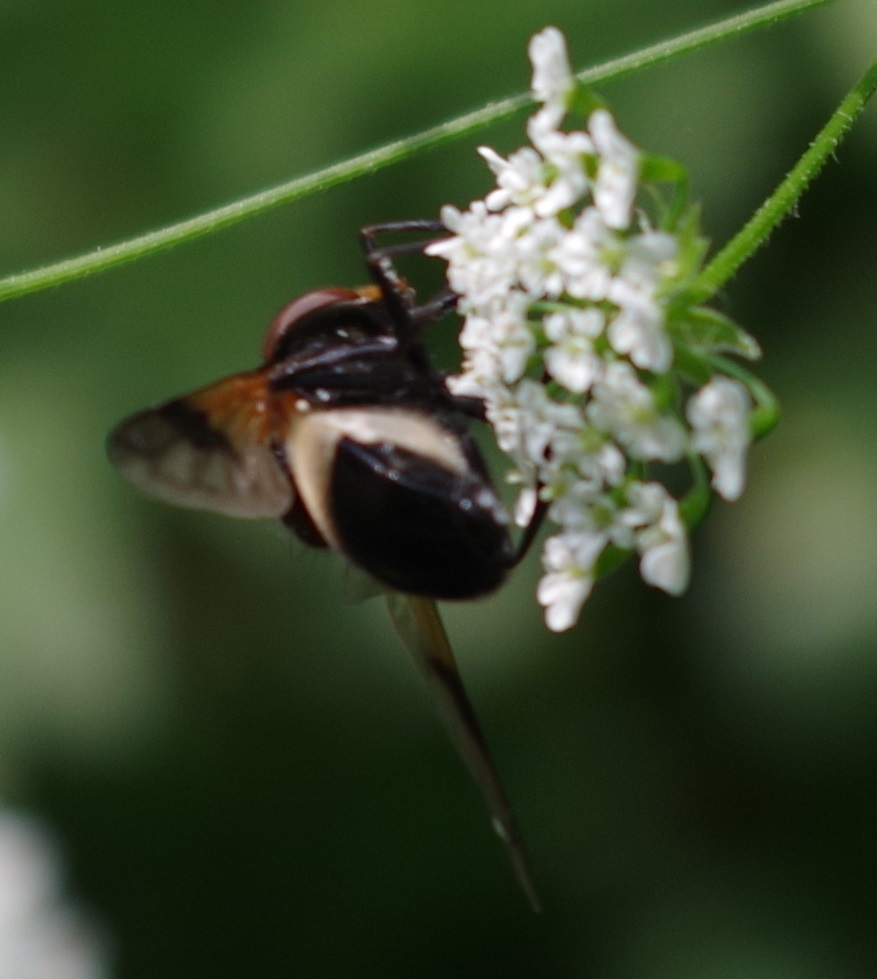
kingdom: Animalia
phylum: Arthropoda
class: Insecta
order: Diptera
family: Syrphidae
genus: Volucella
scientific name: Volucella pellucens
